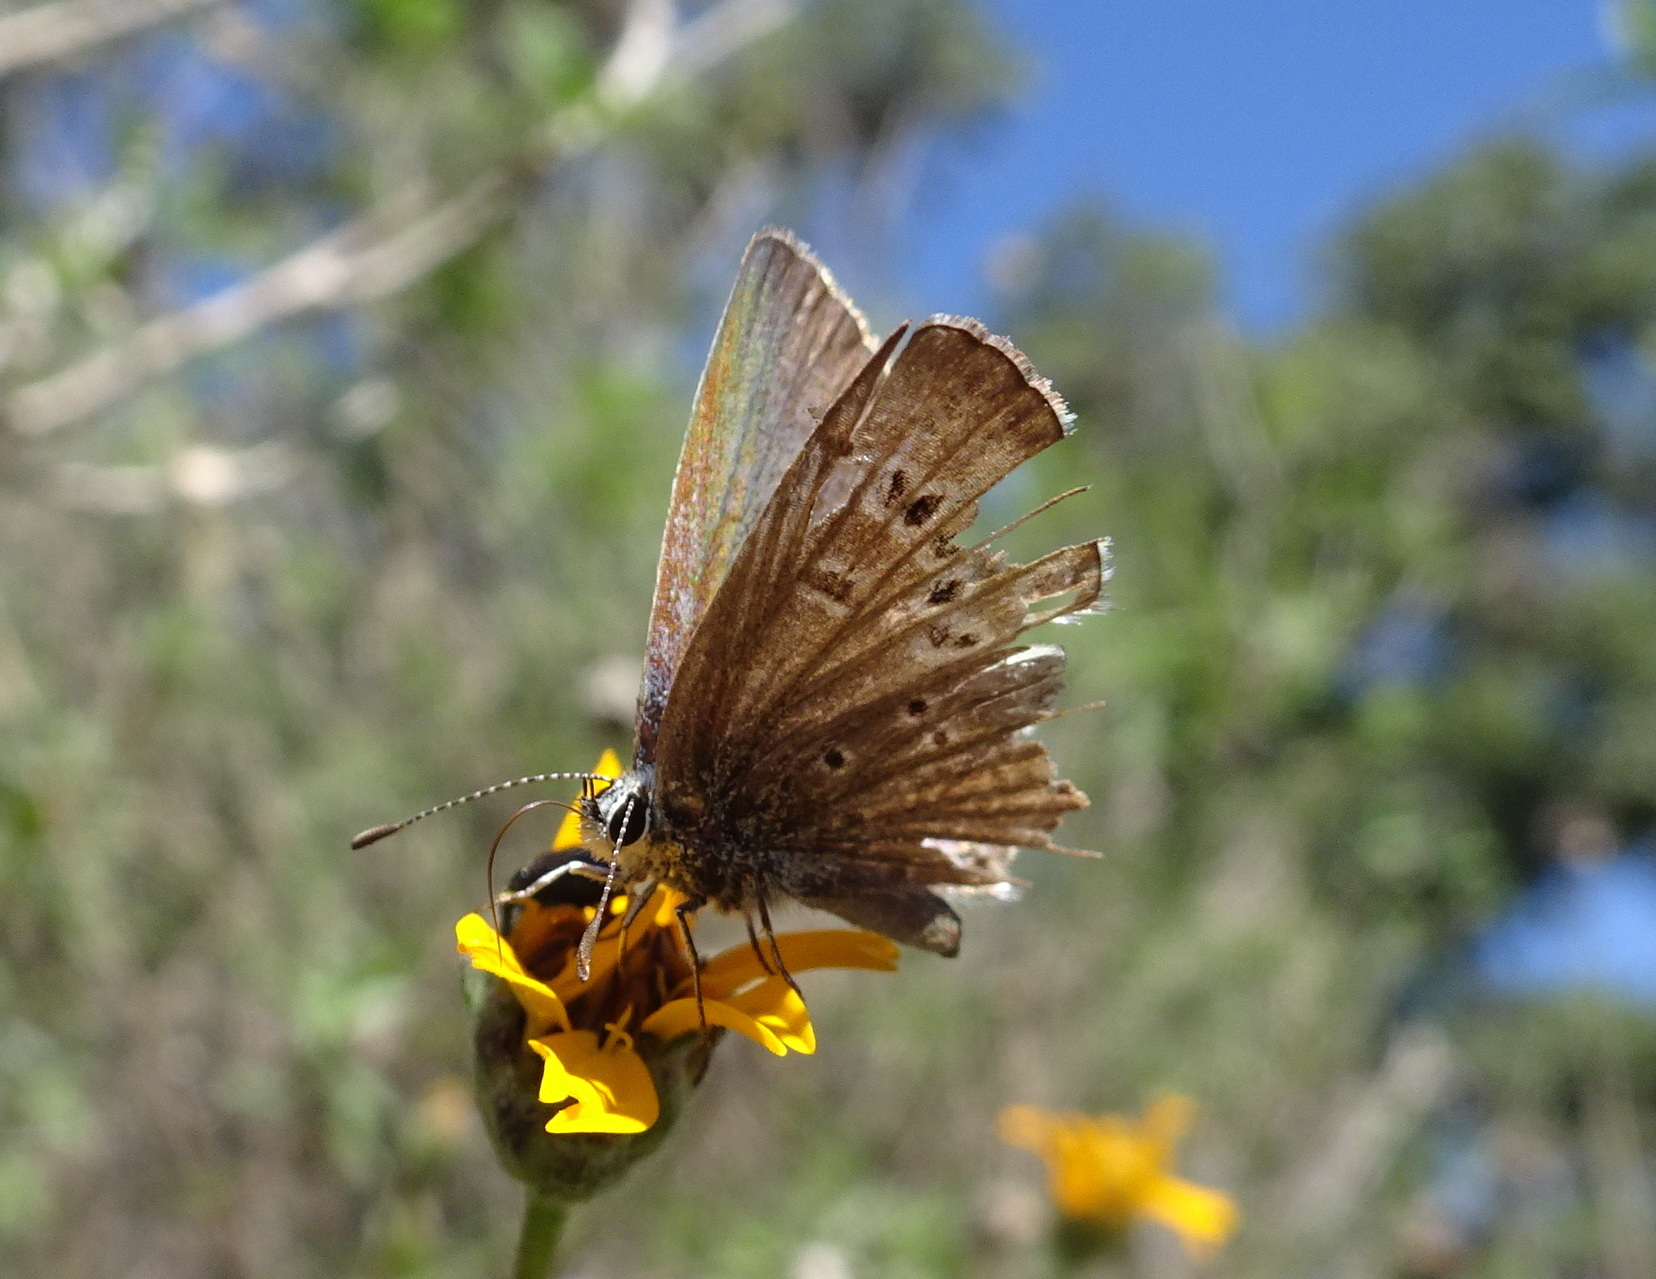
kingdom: Animalia
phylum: Arthropoda
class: Insecta
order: Lepidoptera
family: Lycaenidae
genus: Echinargus
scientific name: Echinargus isola
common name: Reakirt's blue
